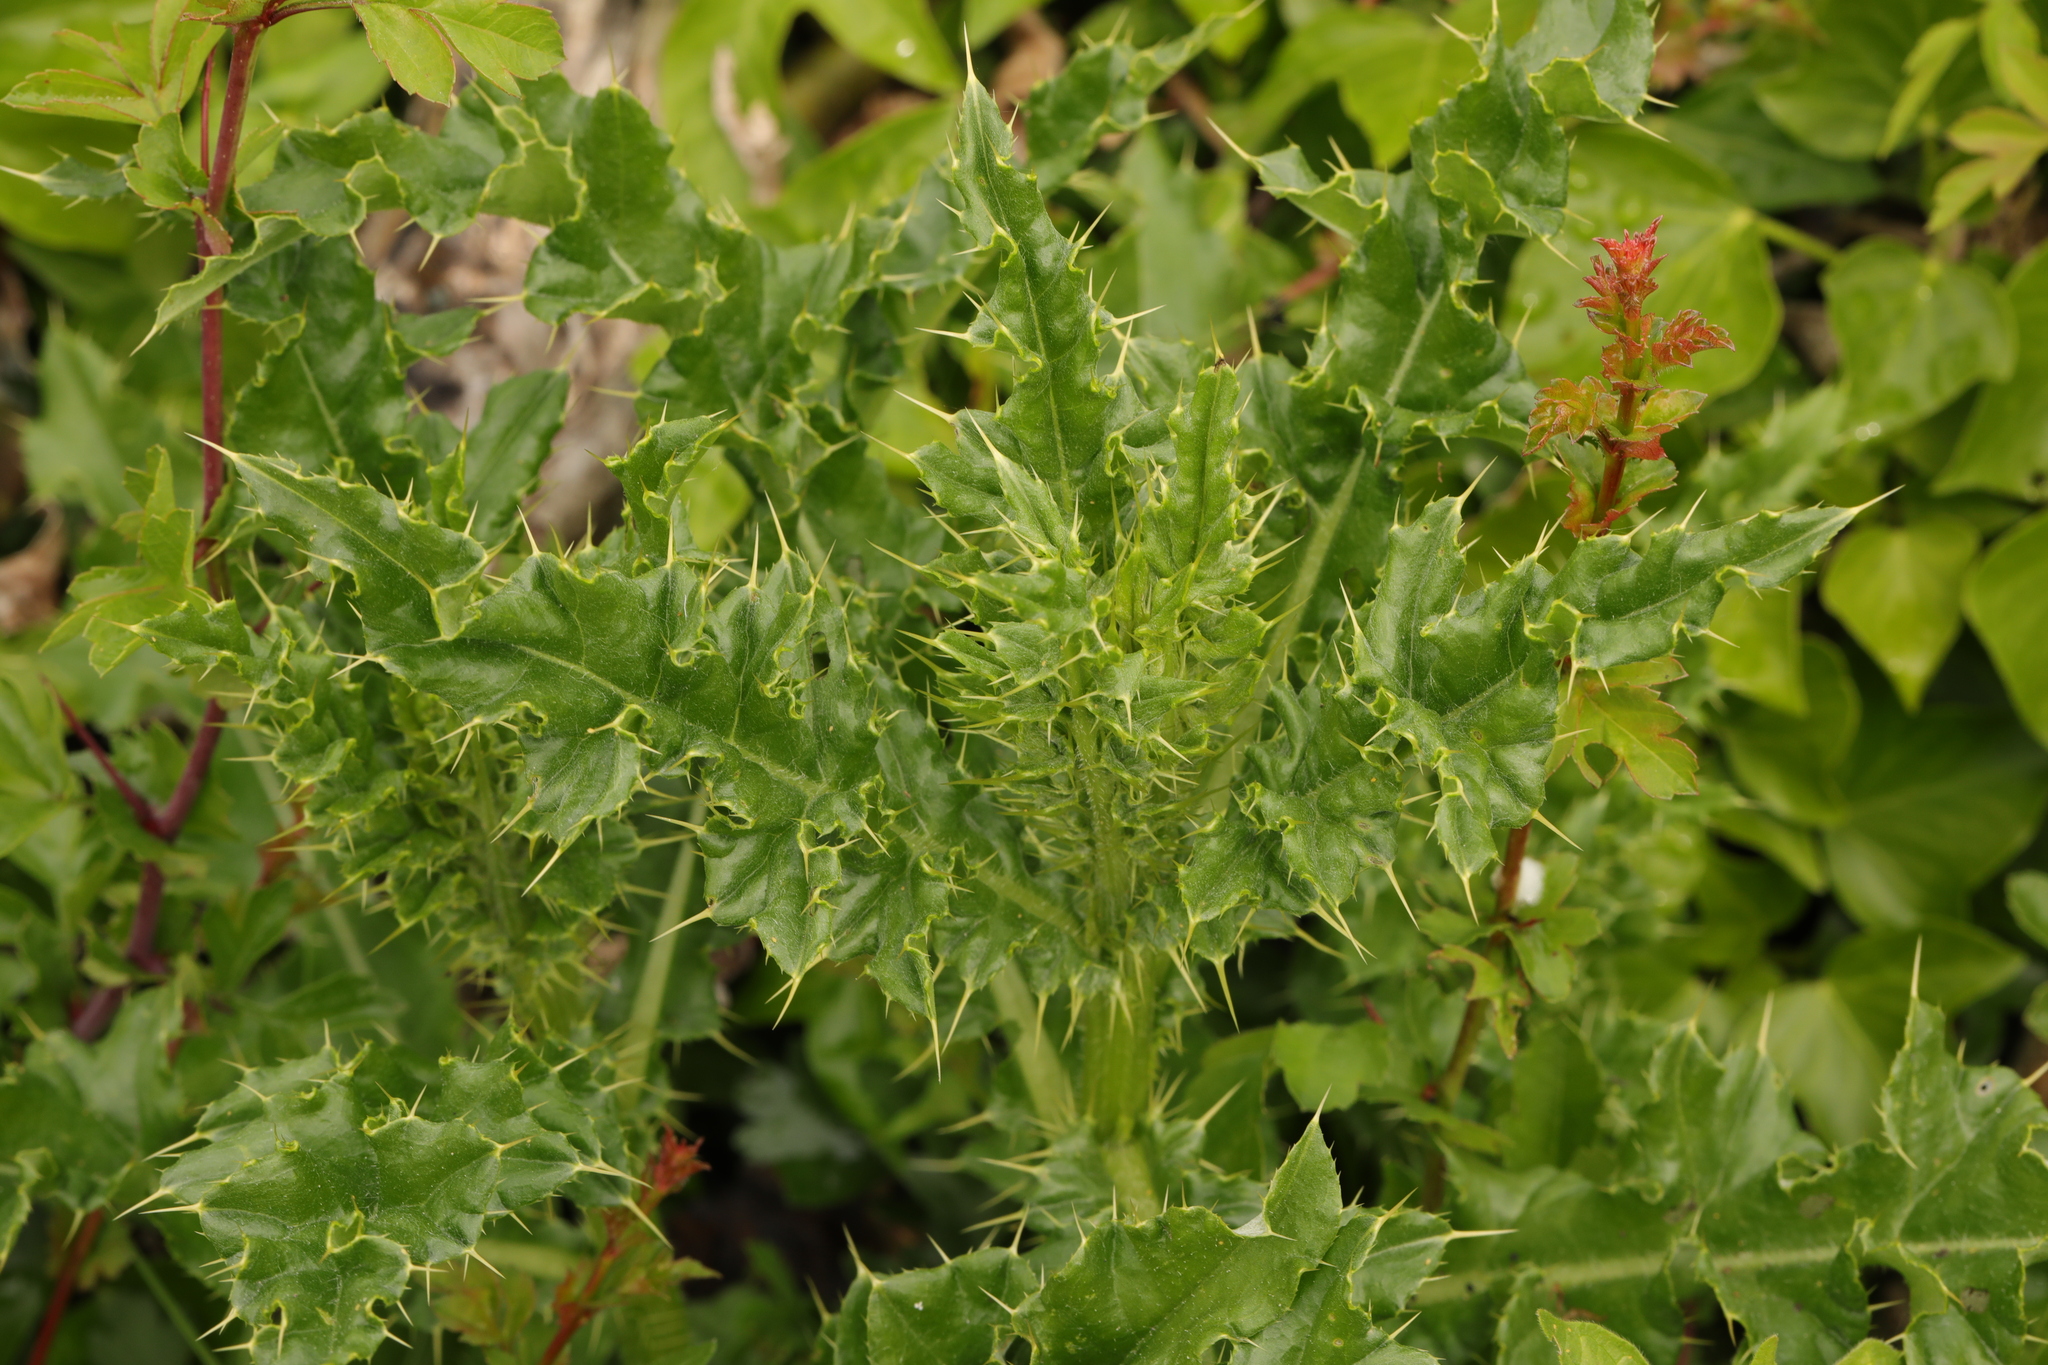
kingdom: Plantae
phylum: Tracheophyta
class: Magnoliopsida
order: Asterales
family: Asteraceae
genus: Cirsium
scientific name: Cirsium arvense
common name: Creeping thistle
